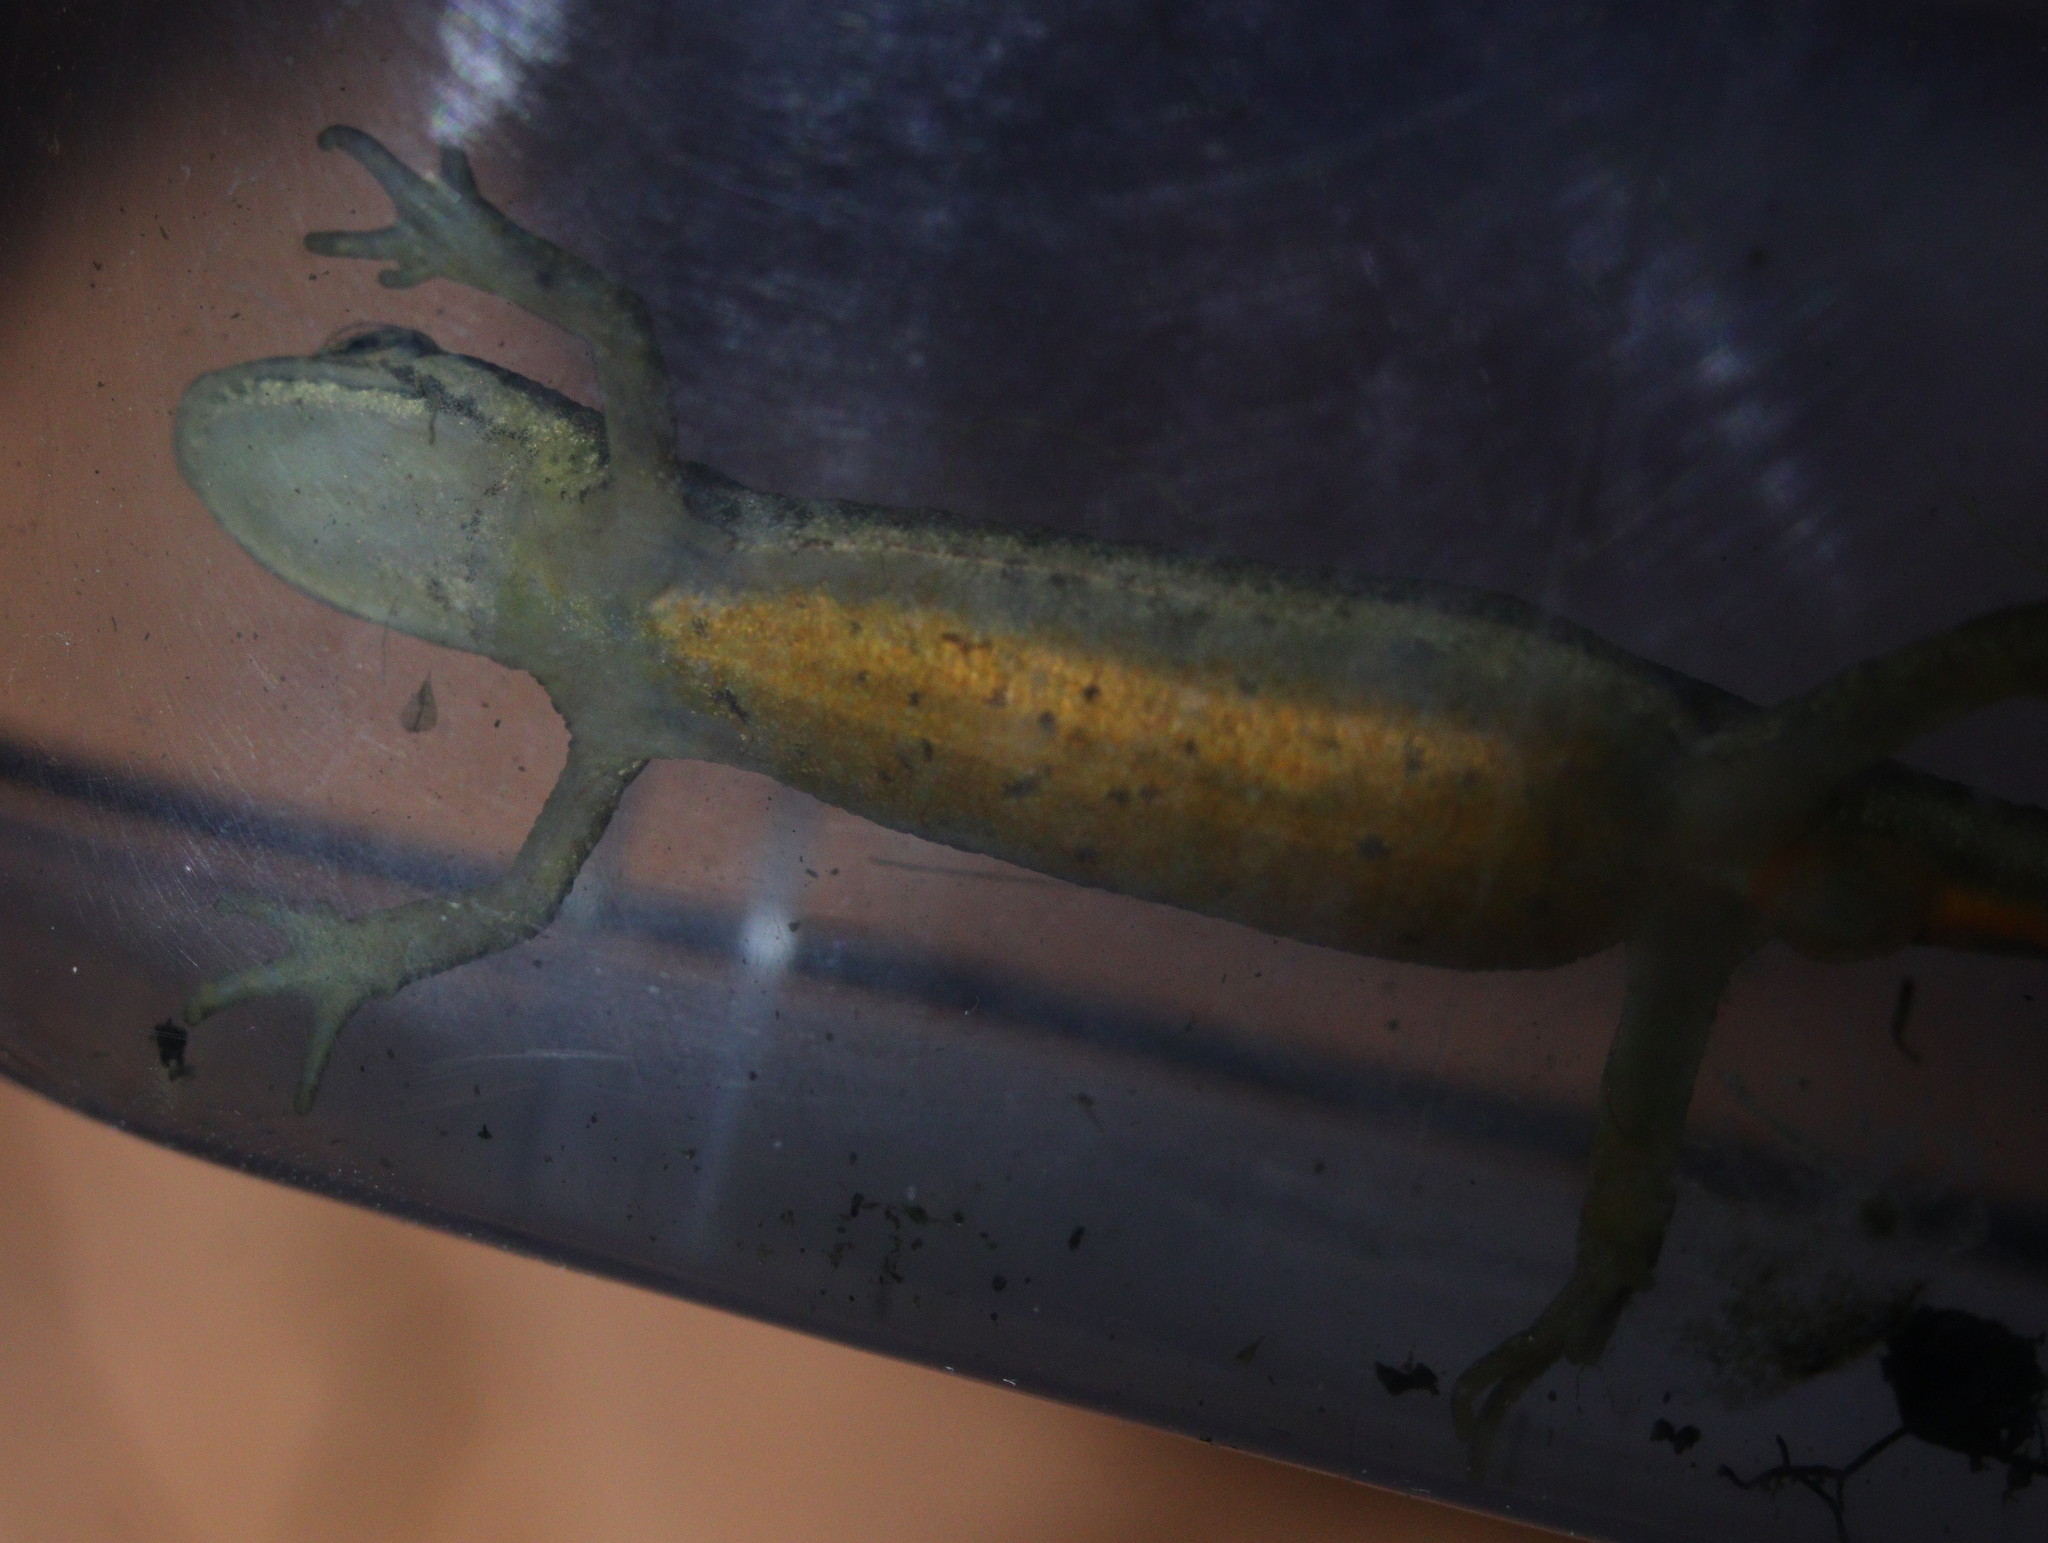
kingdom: Animalia
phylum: Chordata
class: Amphibia
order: Caudata
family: Salamandridae
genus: Lissotriton
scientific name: Lissotriton vulgaris
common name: Smooth newt
